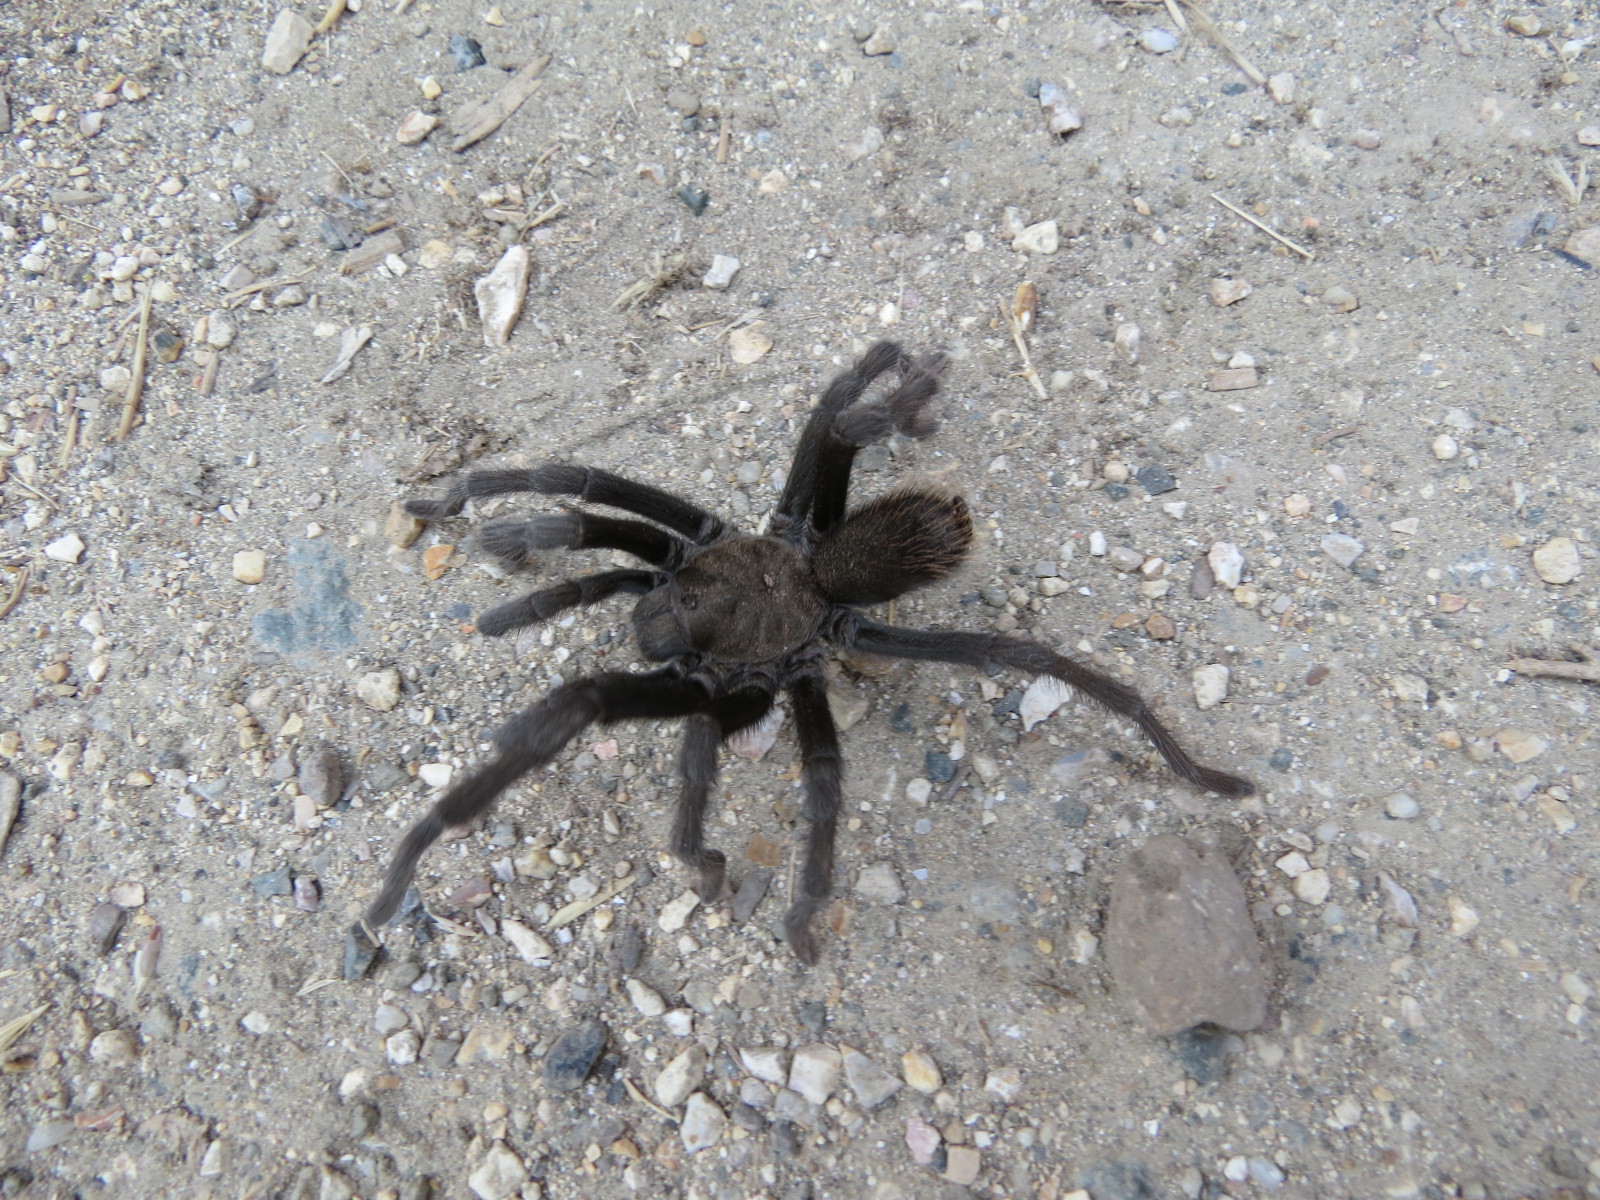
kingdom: Animalia
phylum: Arthropoda
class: Arachnida
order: Araneae
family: Theraphosidae
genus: Aphonopelma
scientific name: Aphonopelma iodius
